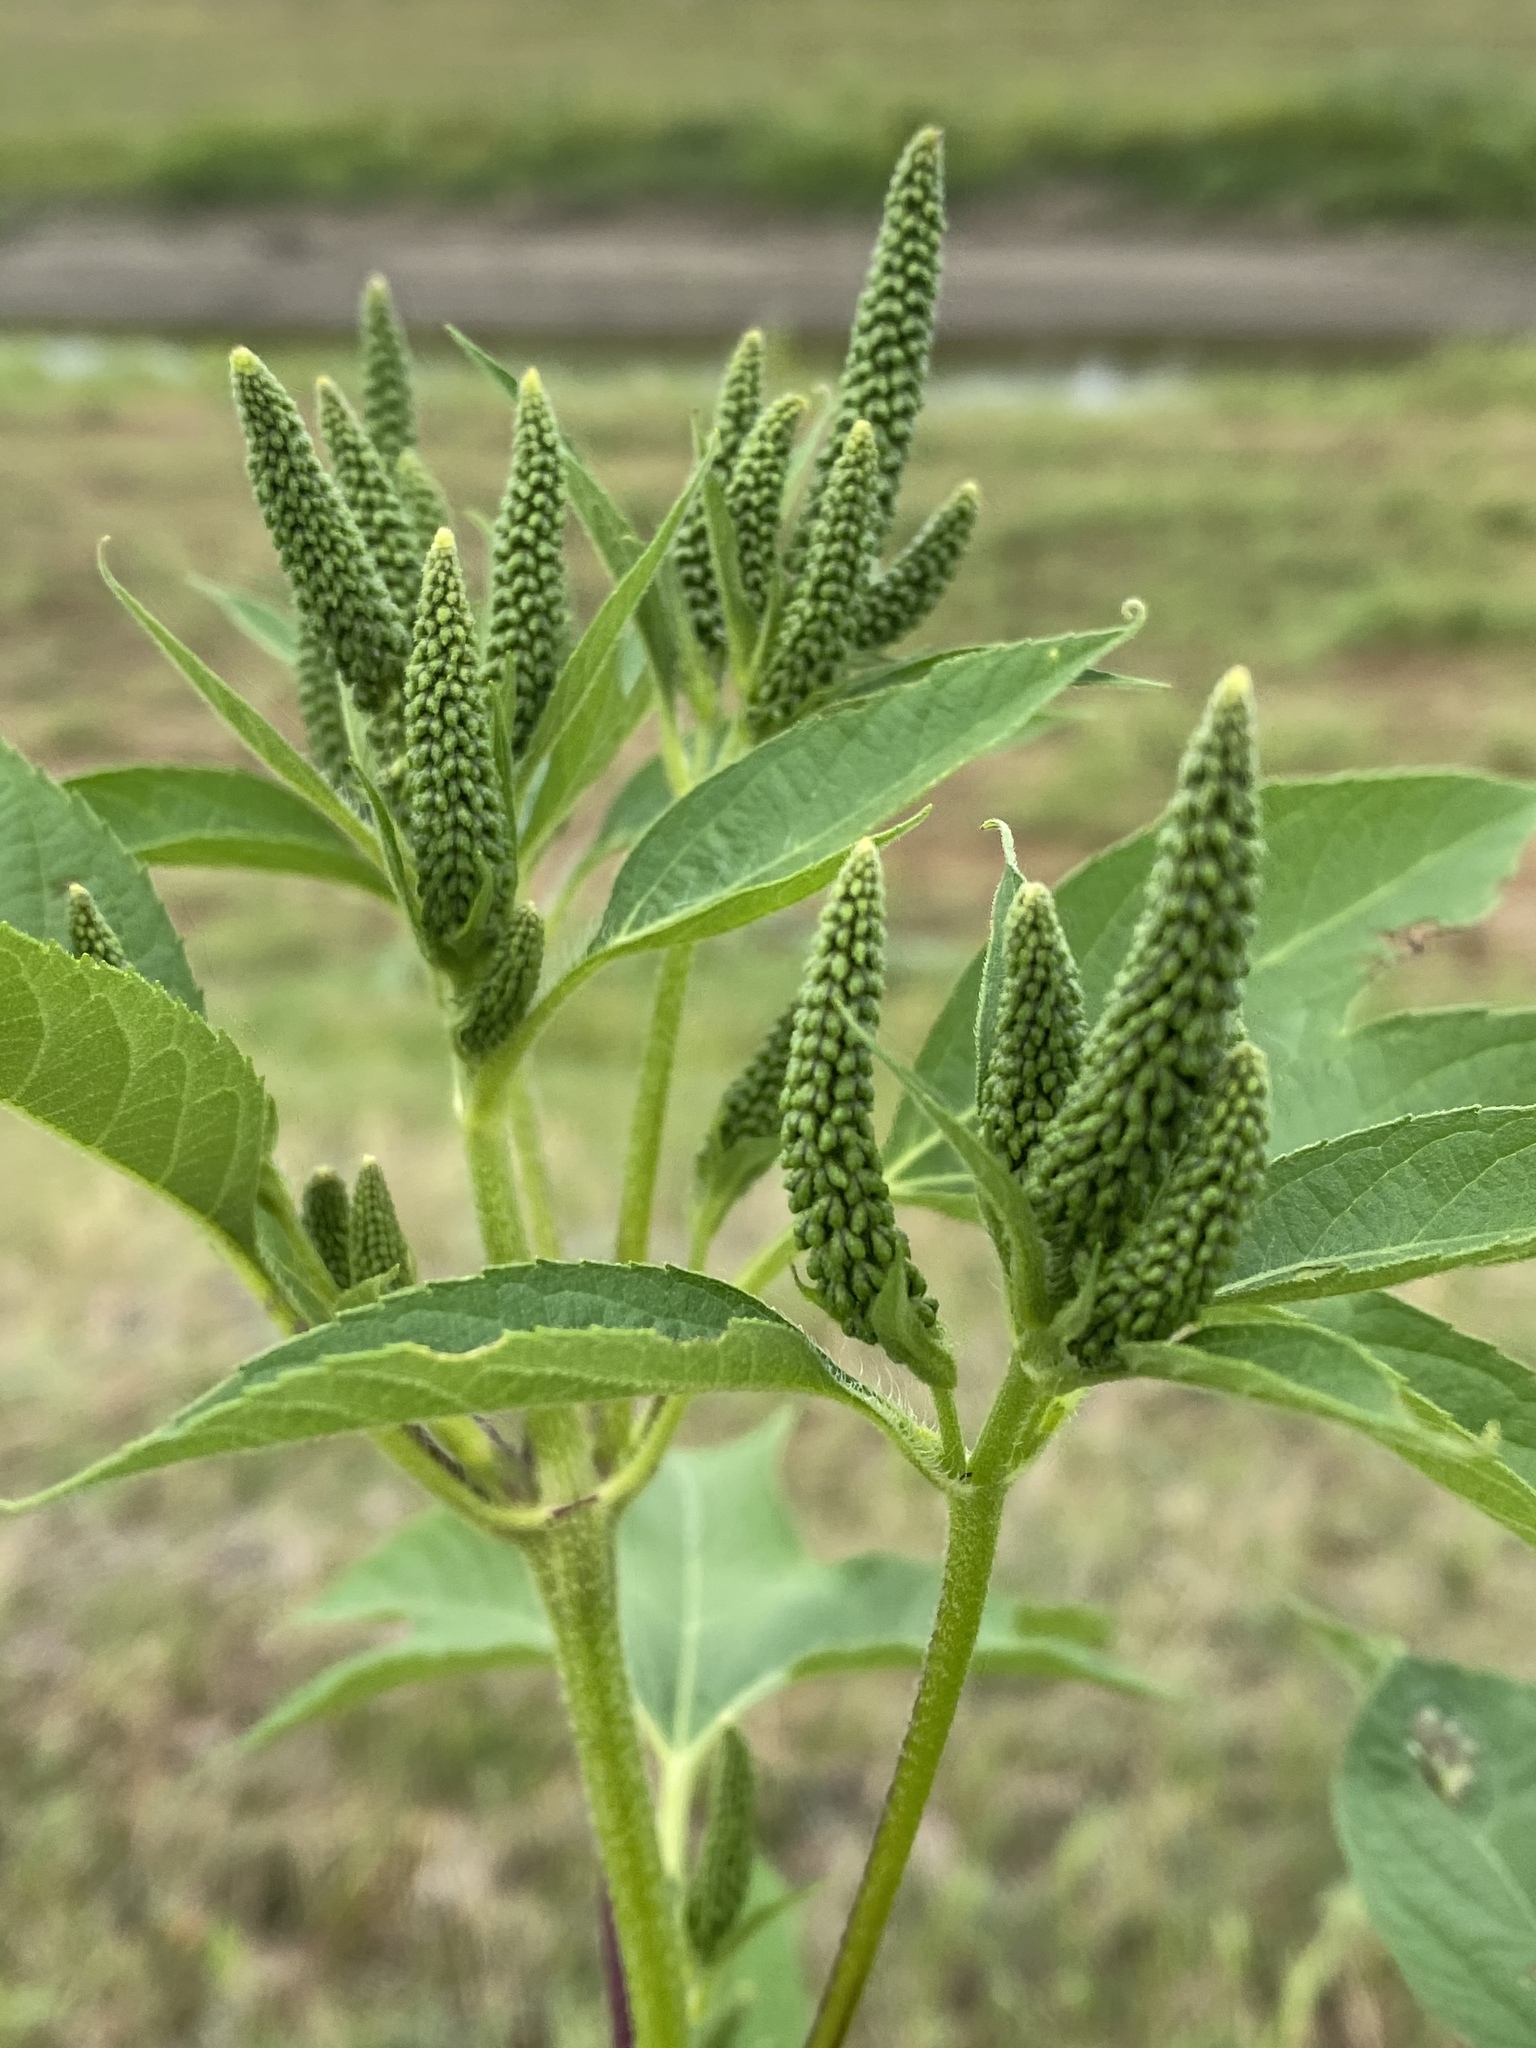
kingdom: Plantae
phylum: Tracheophyta
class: Magnoliopsida
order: Asterales
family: Asteraceae
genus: Ambrosia
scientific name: Ambrosia trifida
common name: Giant ragweed
